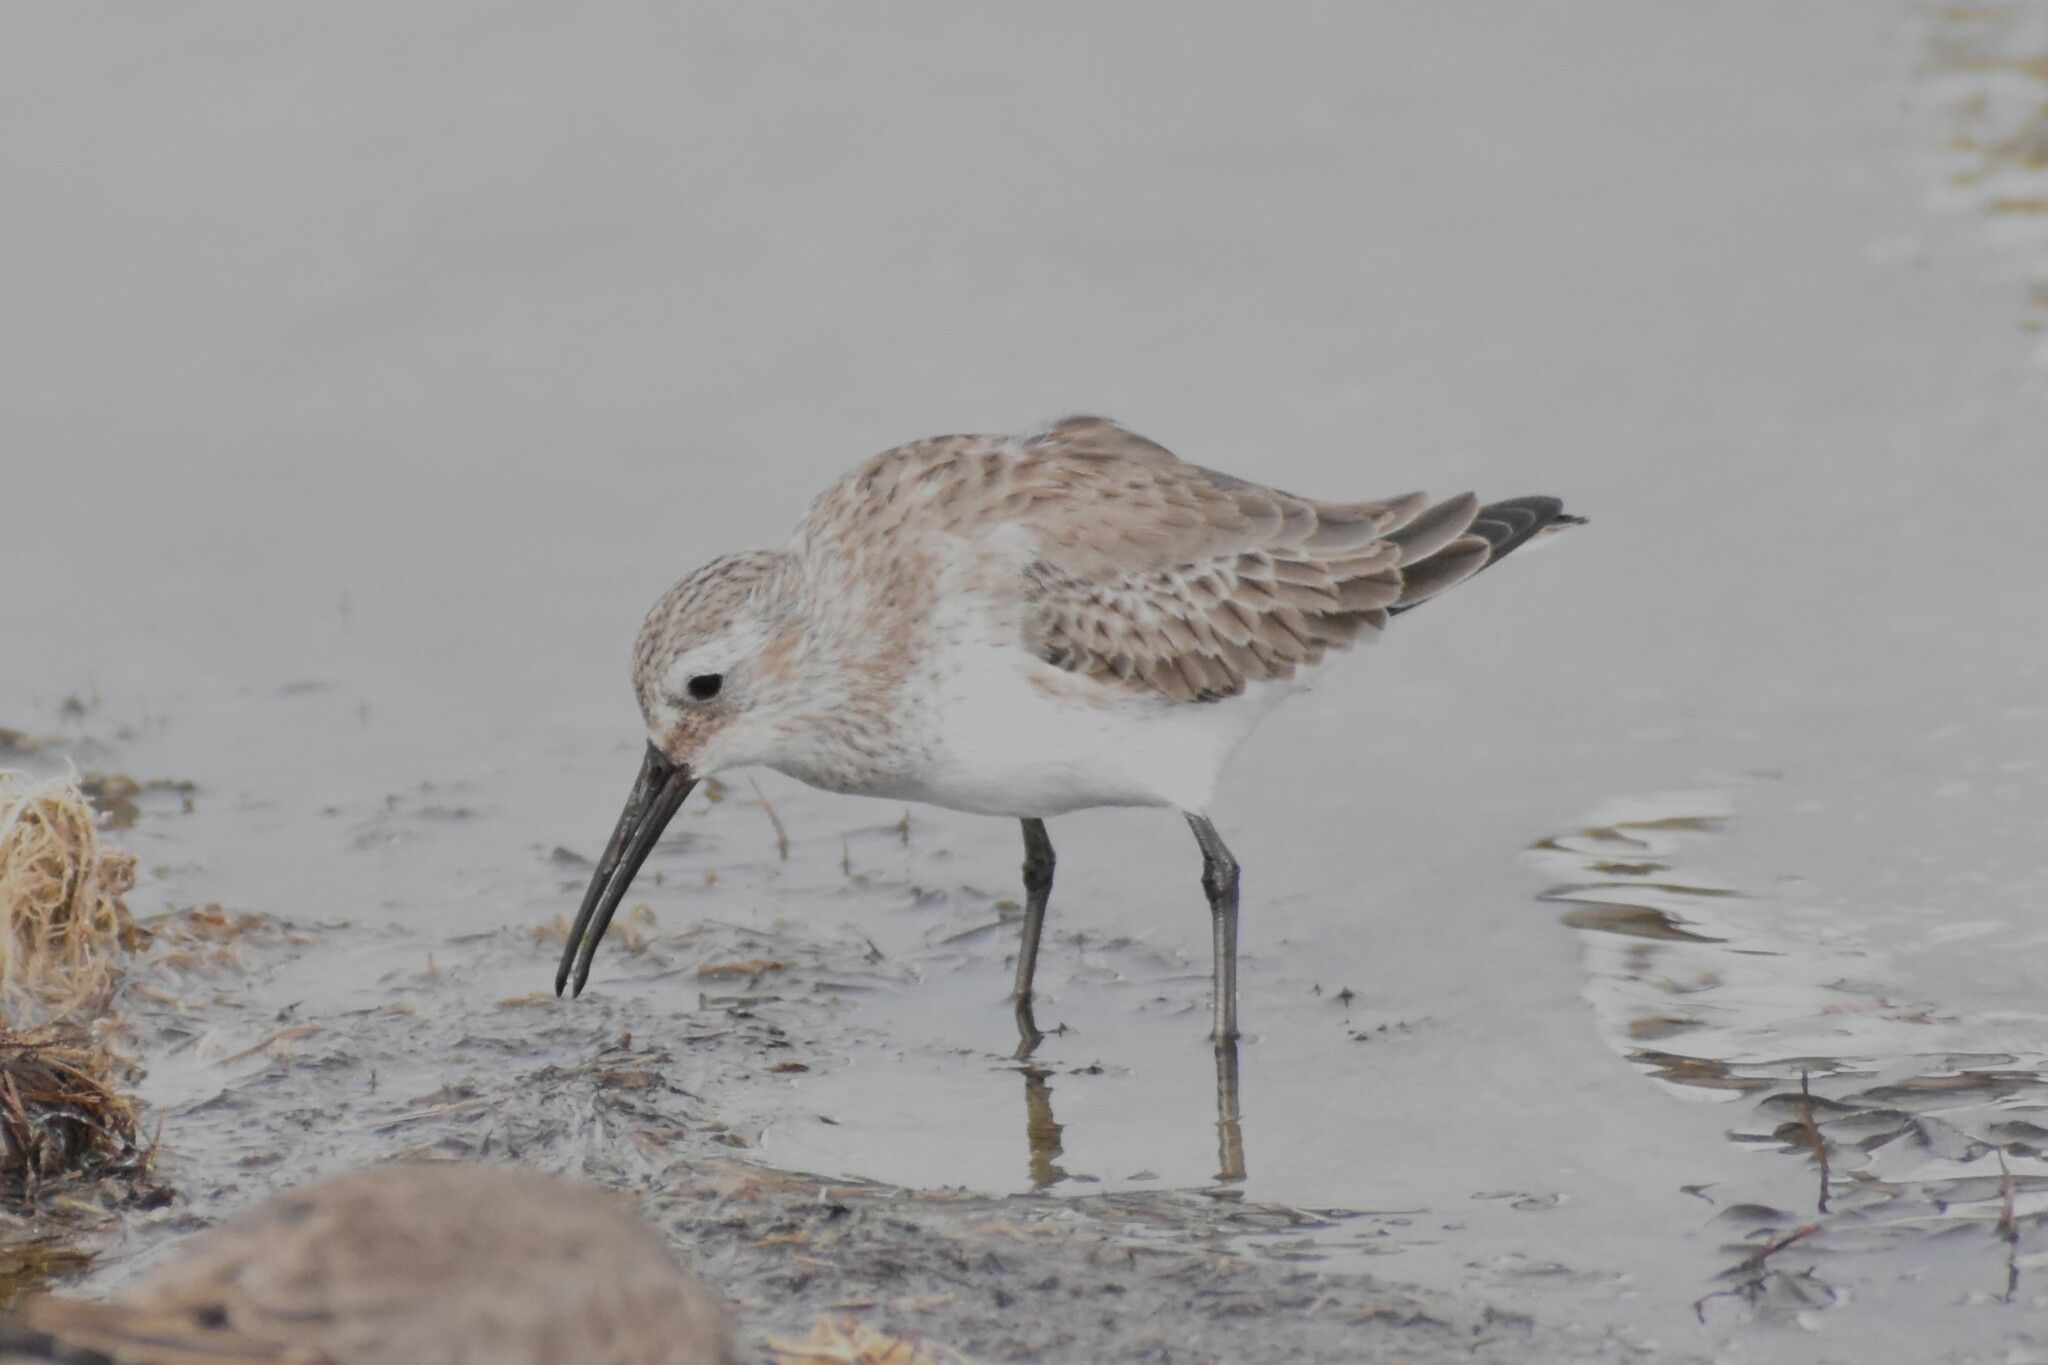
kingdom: Animalia
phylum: Chordata
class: Aves
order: Charadriiformes
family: Scolopacidae
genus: Calidris
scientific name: Calidris alpina
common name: Dunlin
